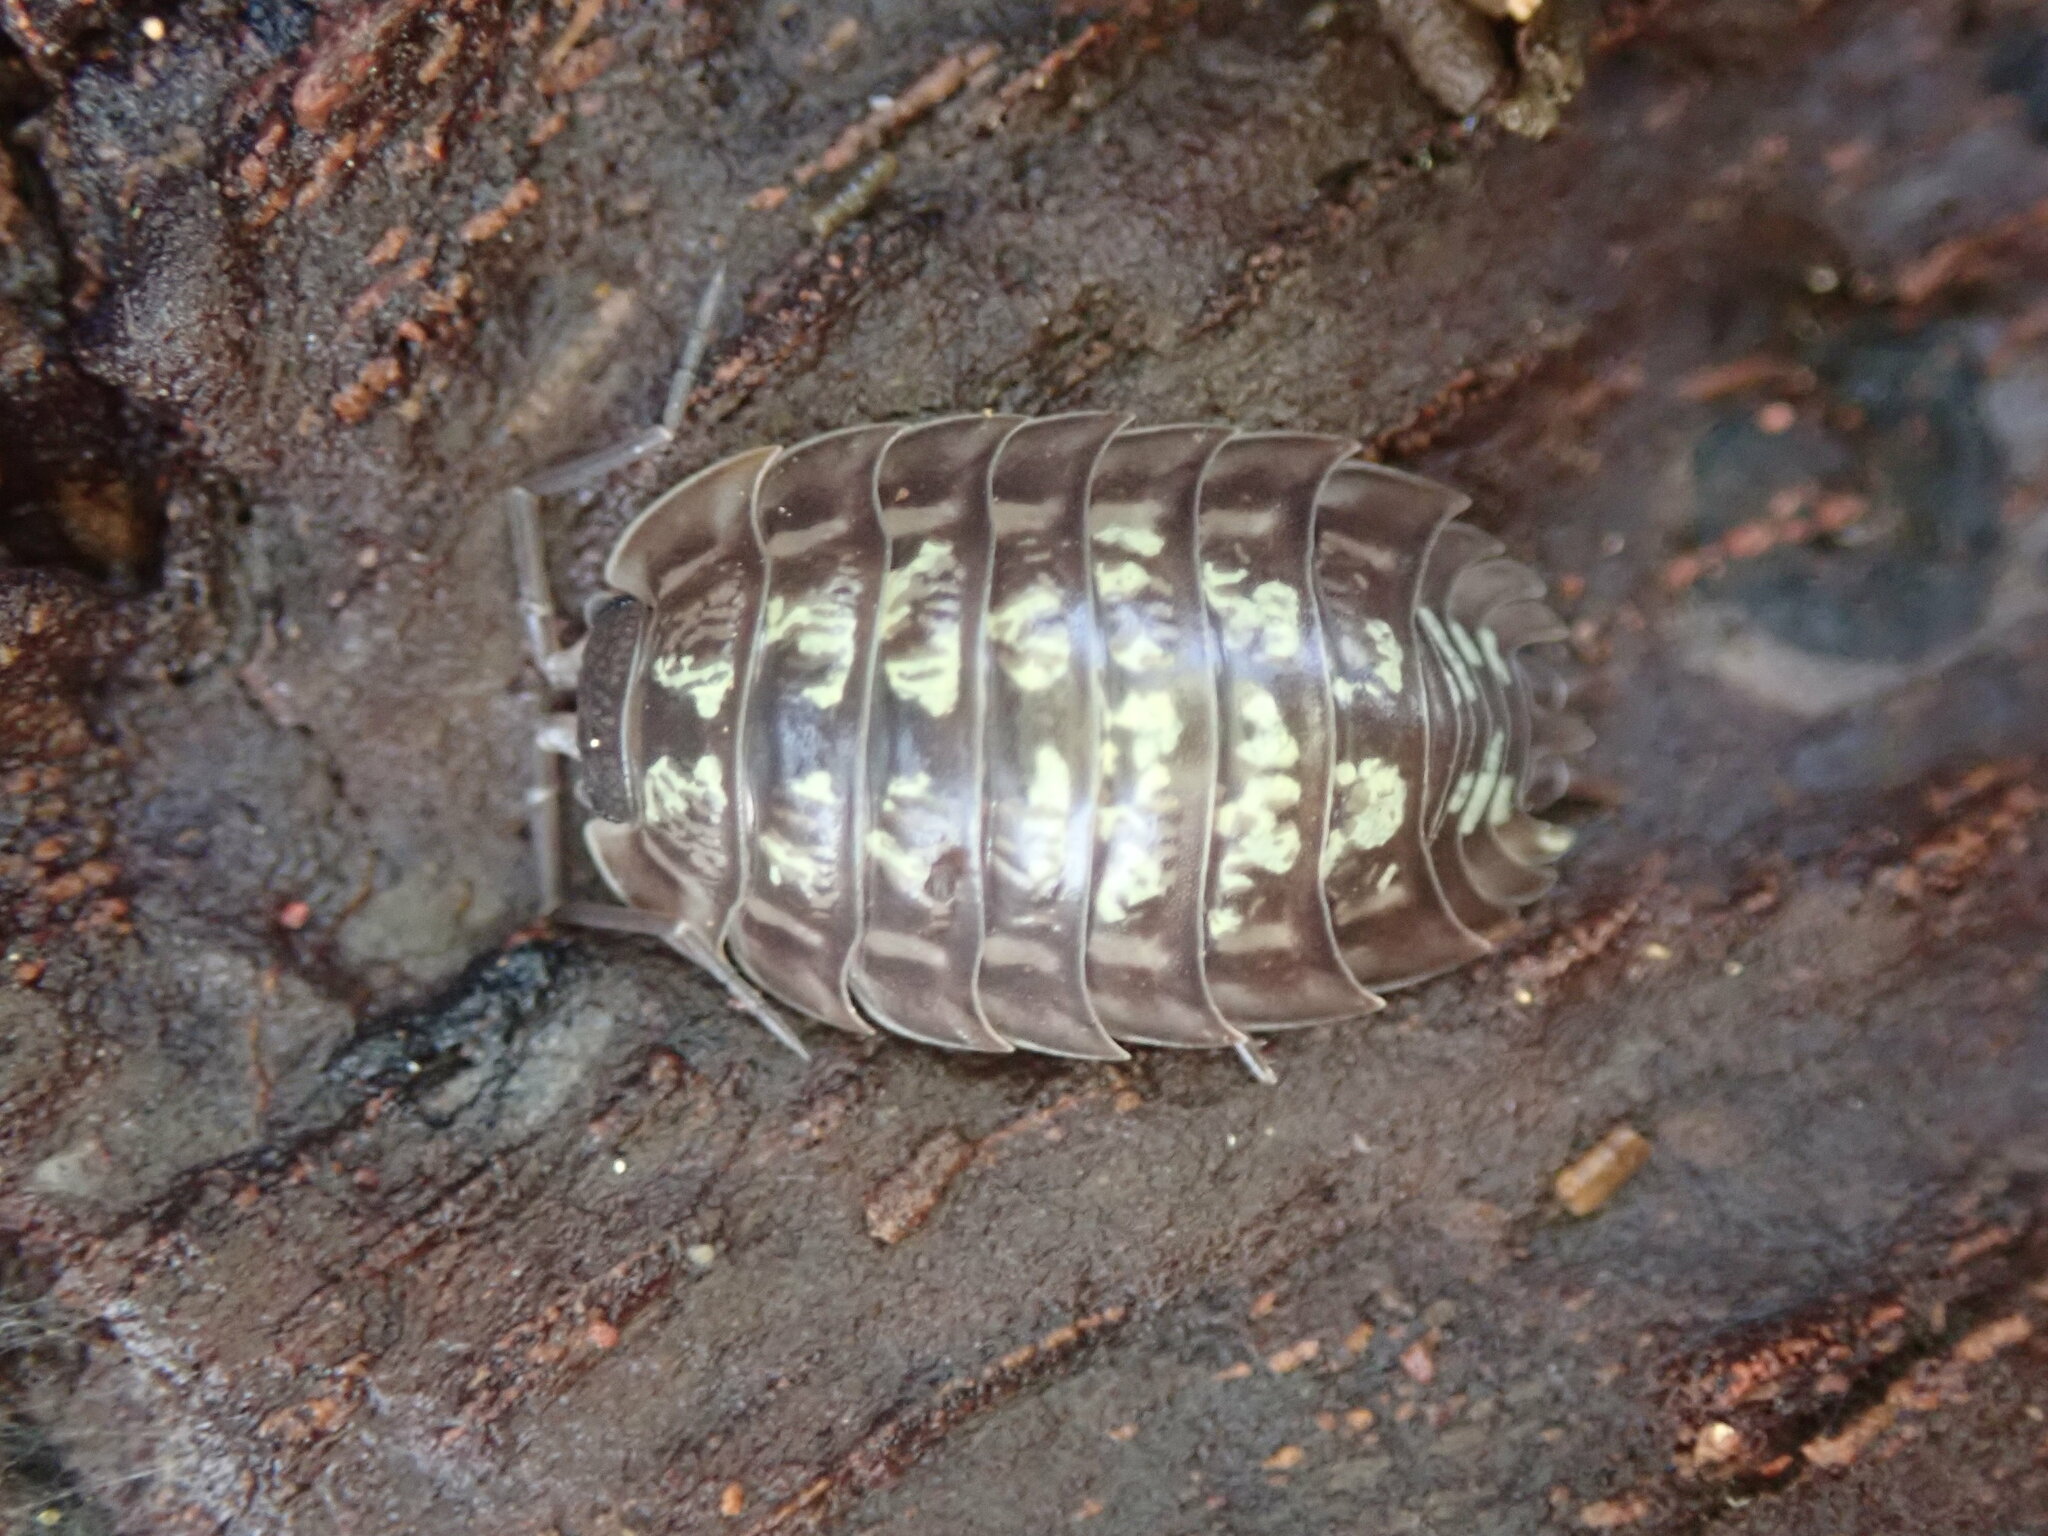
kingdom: Animalia
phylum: Arthropoda
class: Malacostraca
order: Isopoda
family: Oniscidae
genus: Oniscus
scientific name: Oniscus asellus
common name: Common shiny woodlouse
